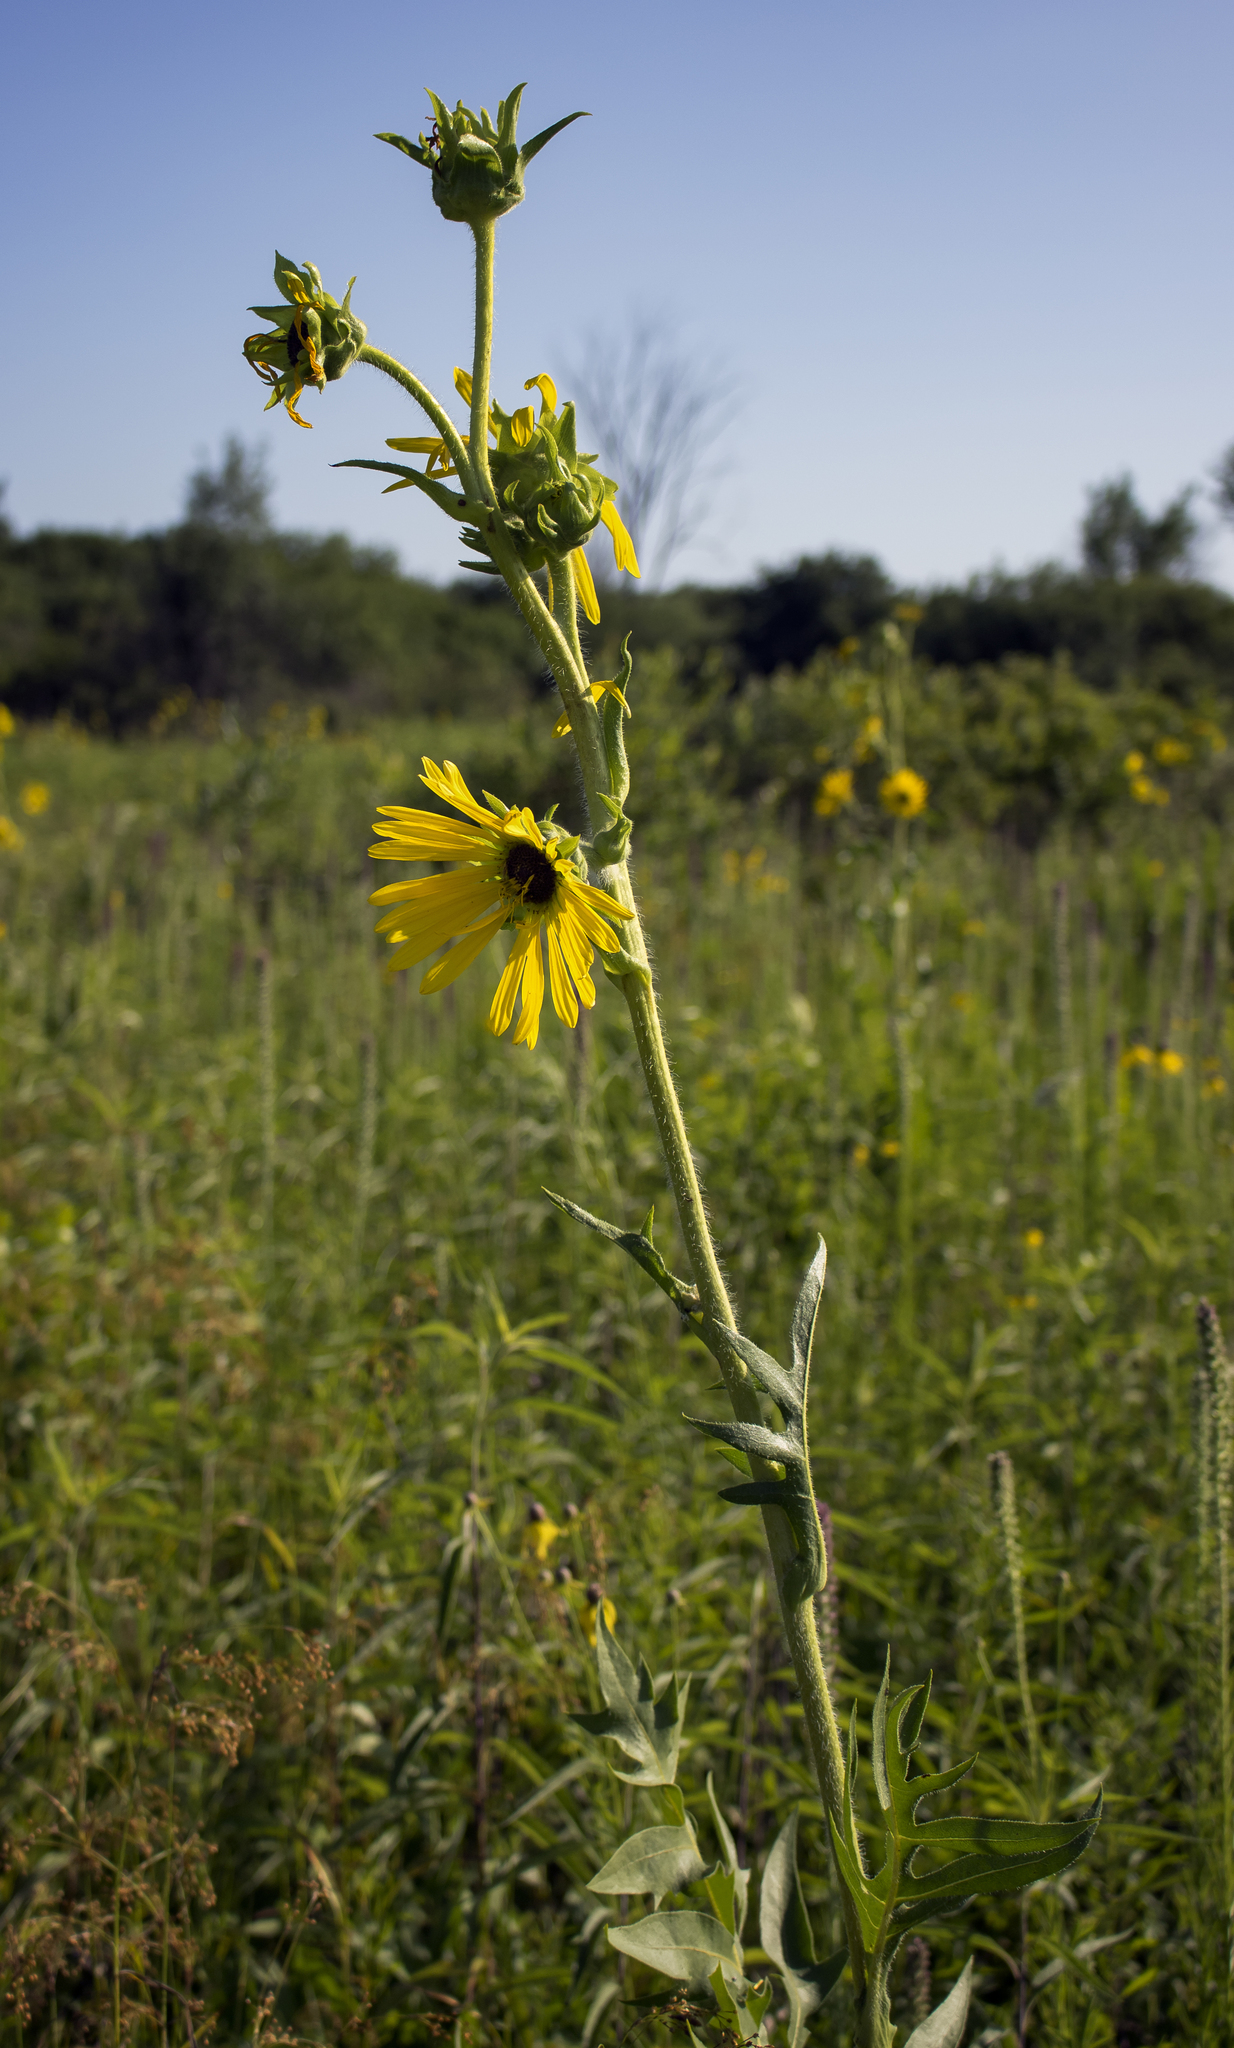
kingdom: Plantae
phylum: Tracheophyta
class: Magnoliopsida
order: Asterales
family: Asteraceae
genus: Silphium
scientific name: Silphium laciniatum
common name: Polarplant
